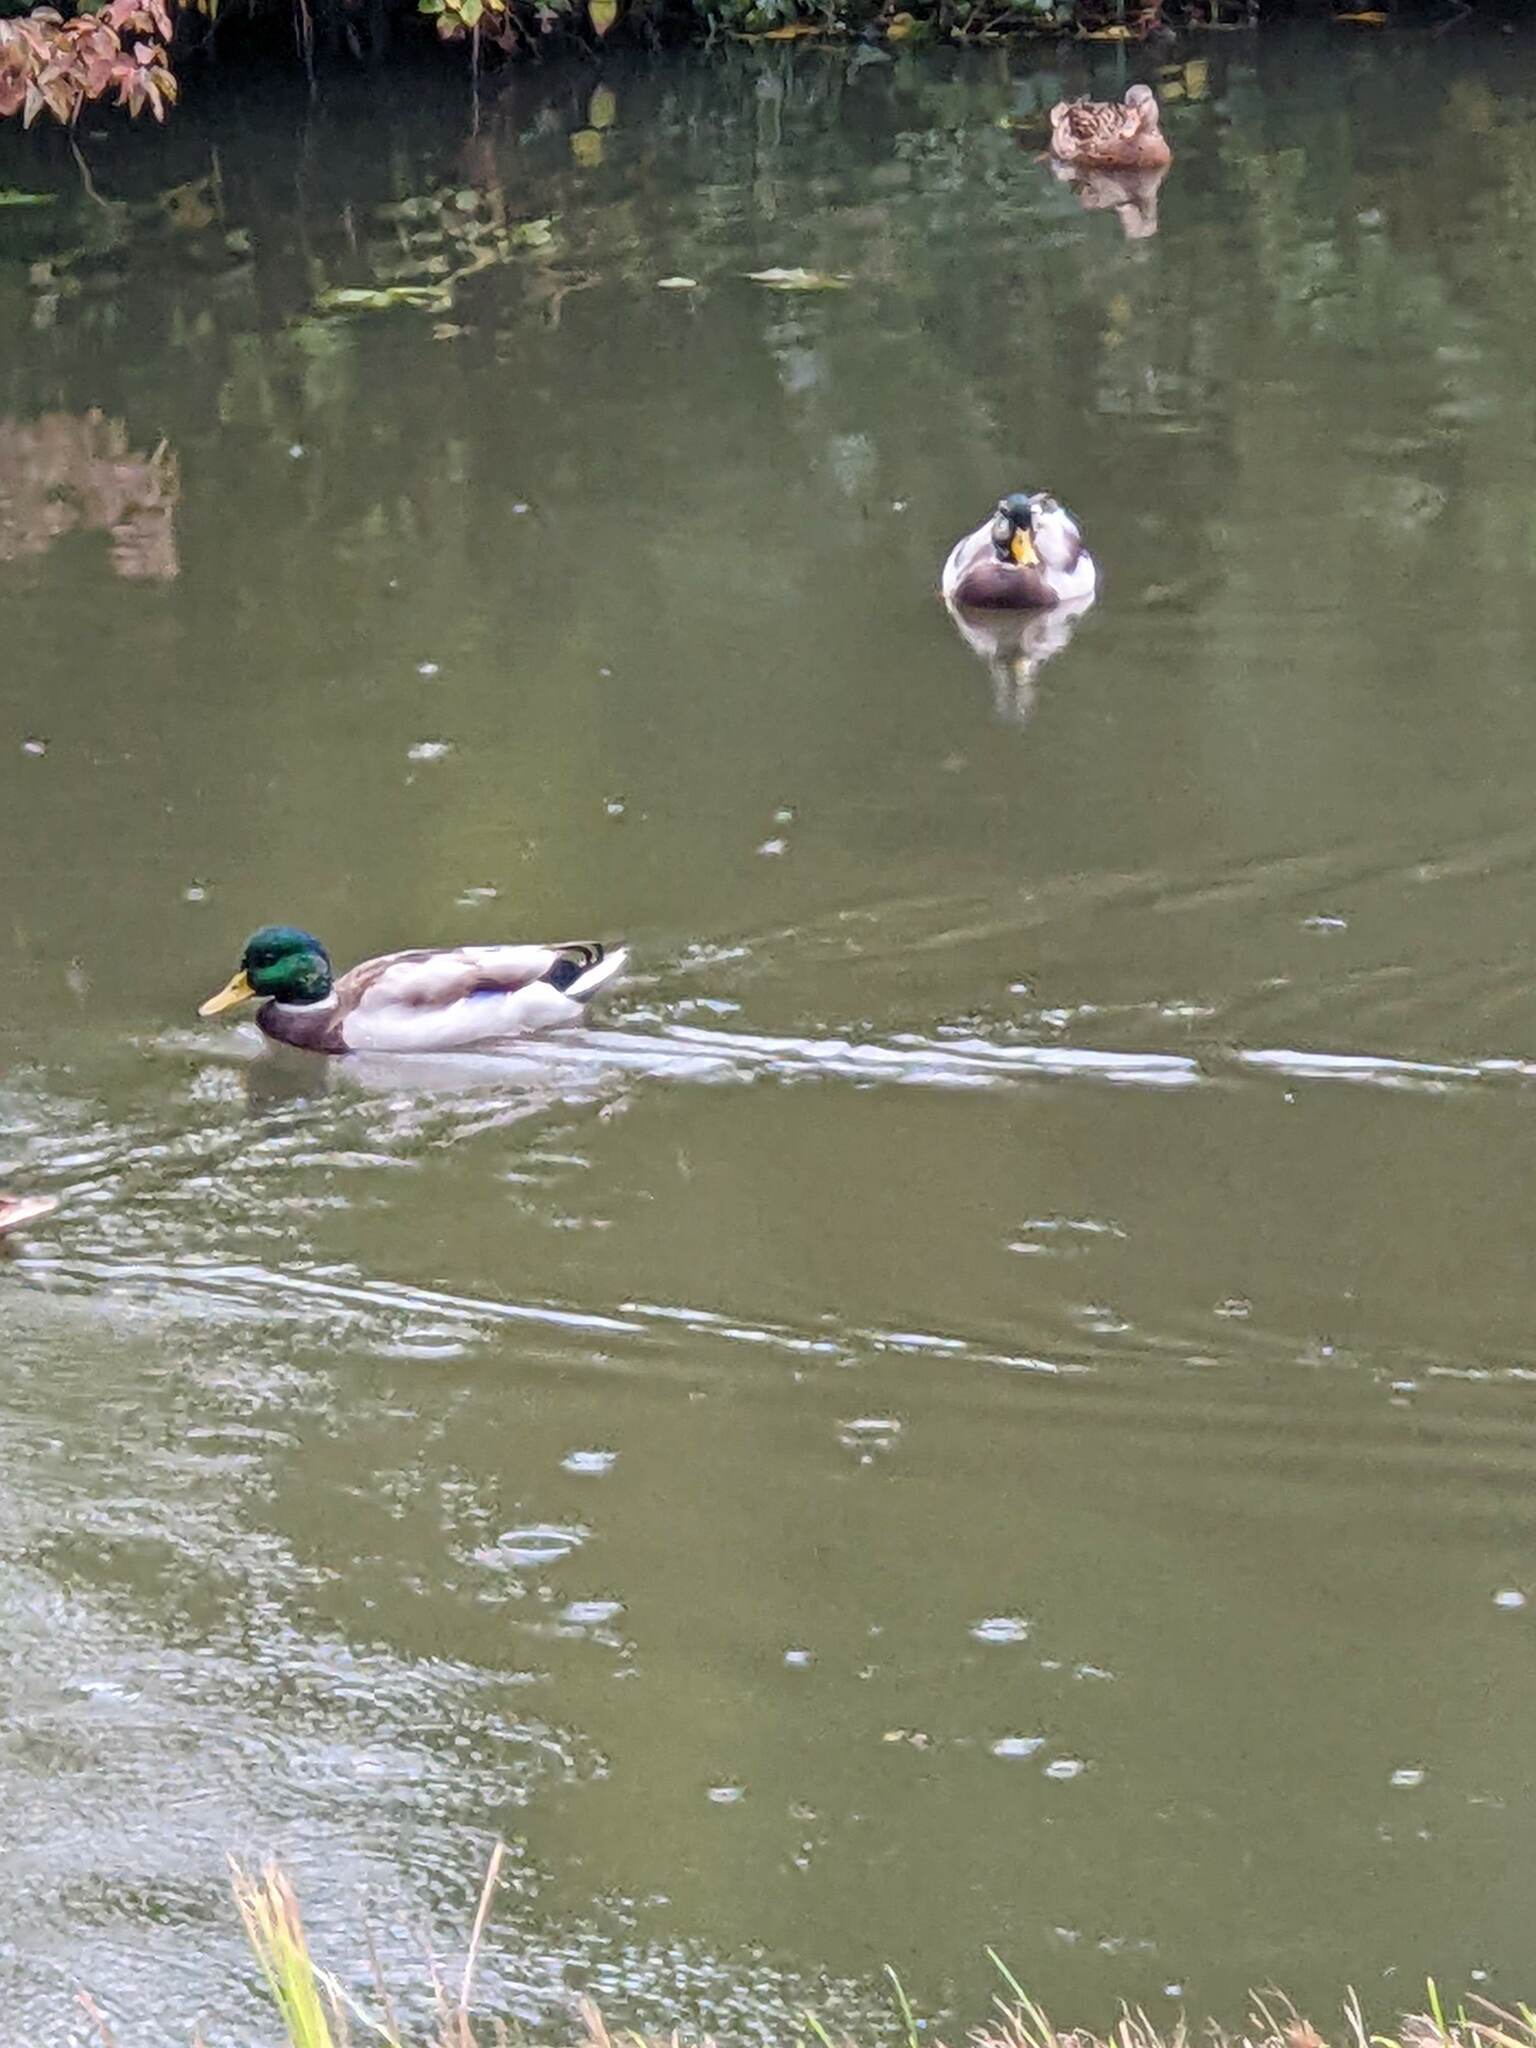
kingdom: Animalia
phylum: Chordata
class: Aves
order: Anseriformes
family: Anatidae
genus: Anas
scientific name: Anas platyrhynchos
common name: Mallard
